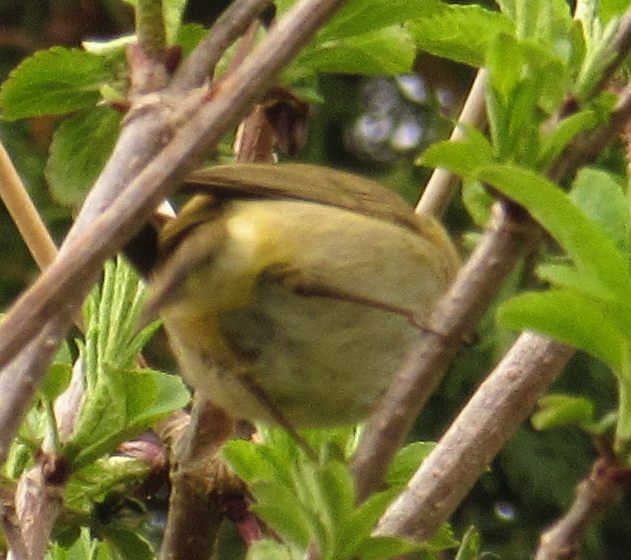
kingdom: Animalia
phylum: Chordata
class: Aves
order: Passeriformes
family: Phylloscopidae
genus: Phylloscopus
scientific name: Phylloscopus collybita
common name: Common chiffchaff
